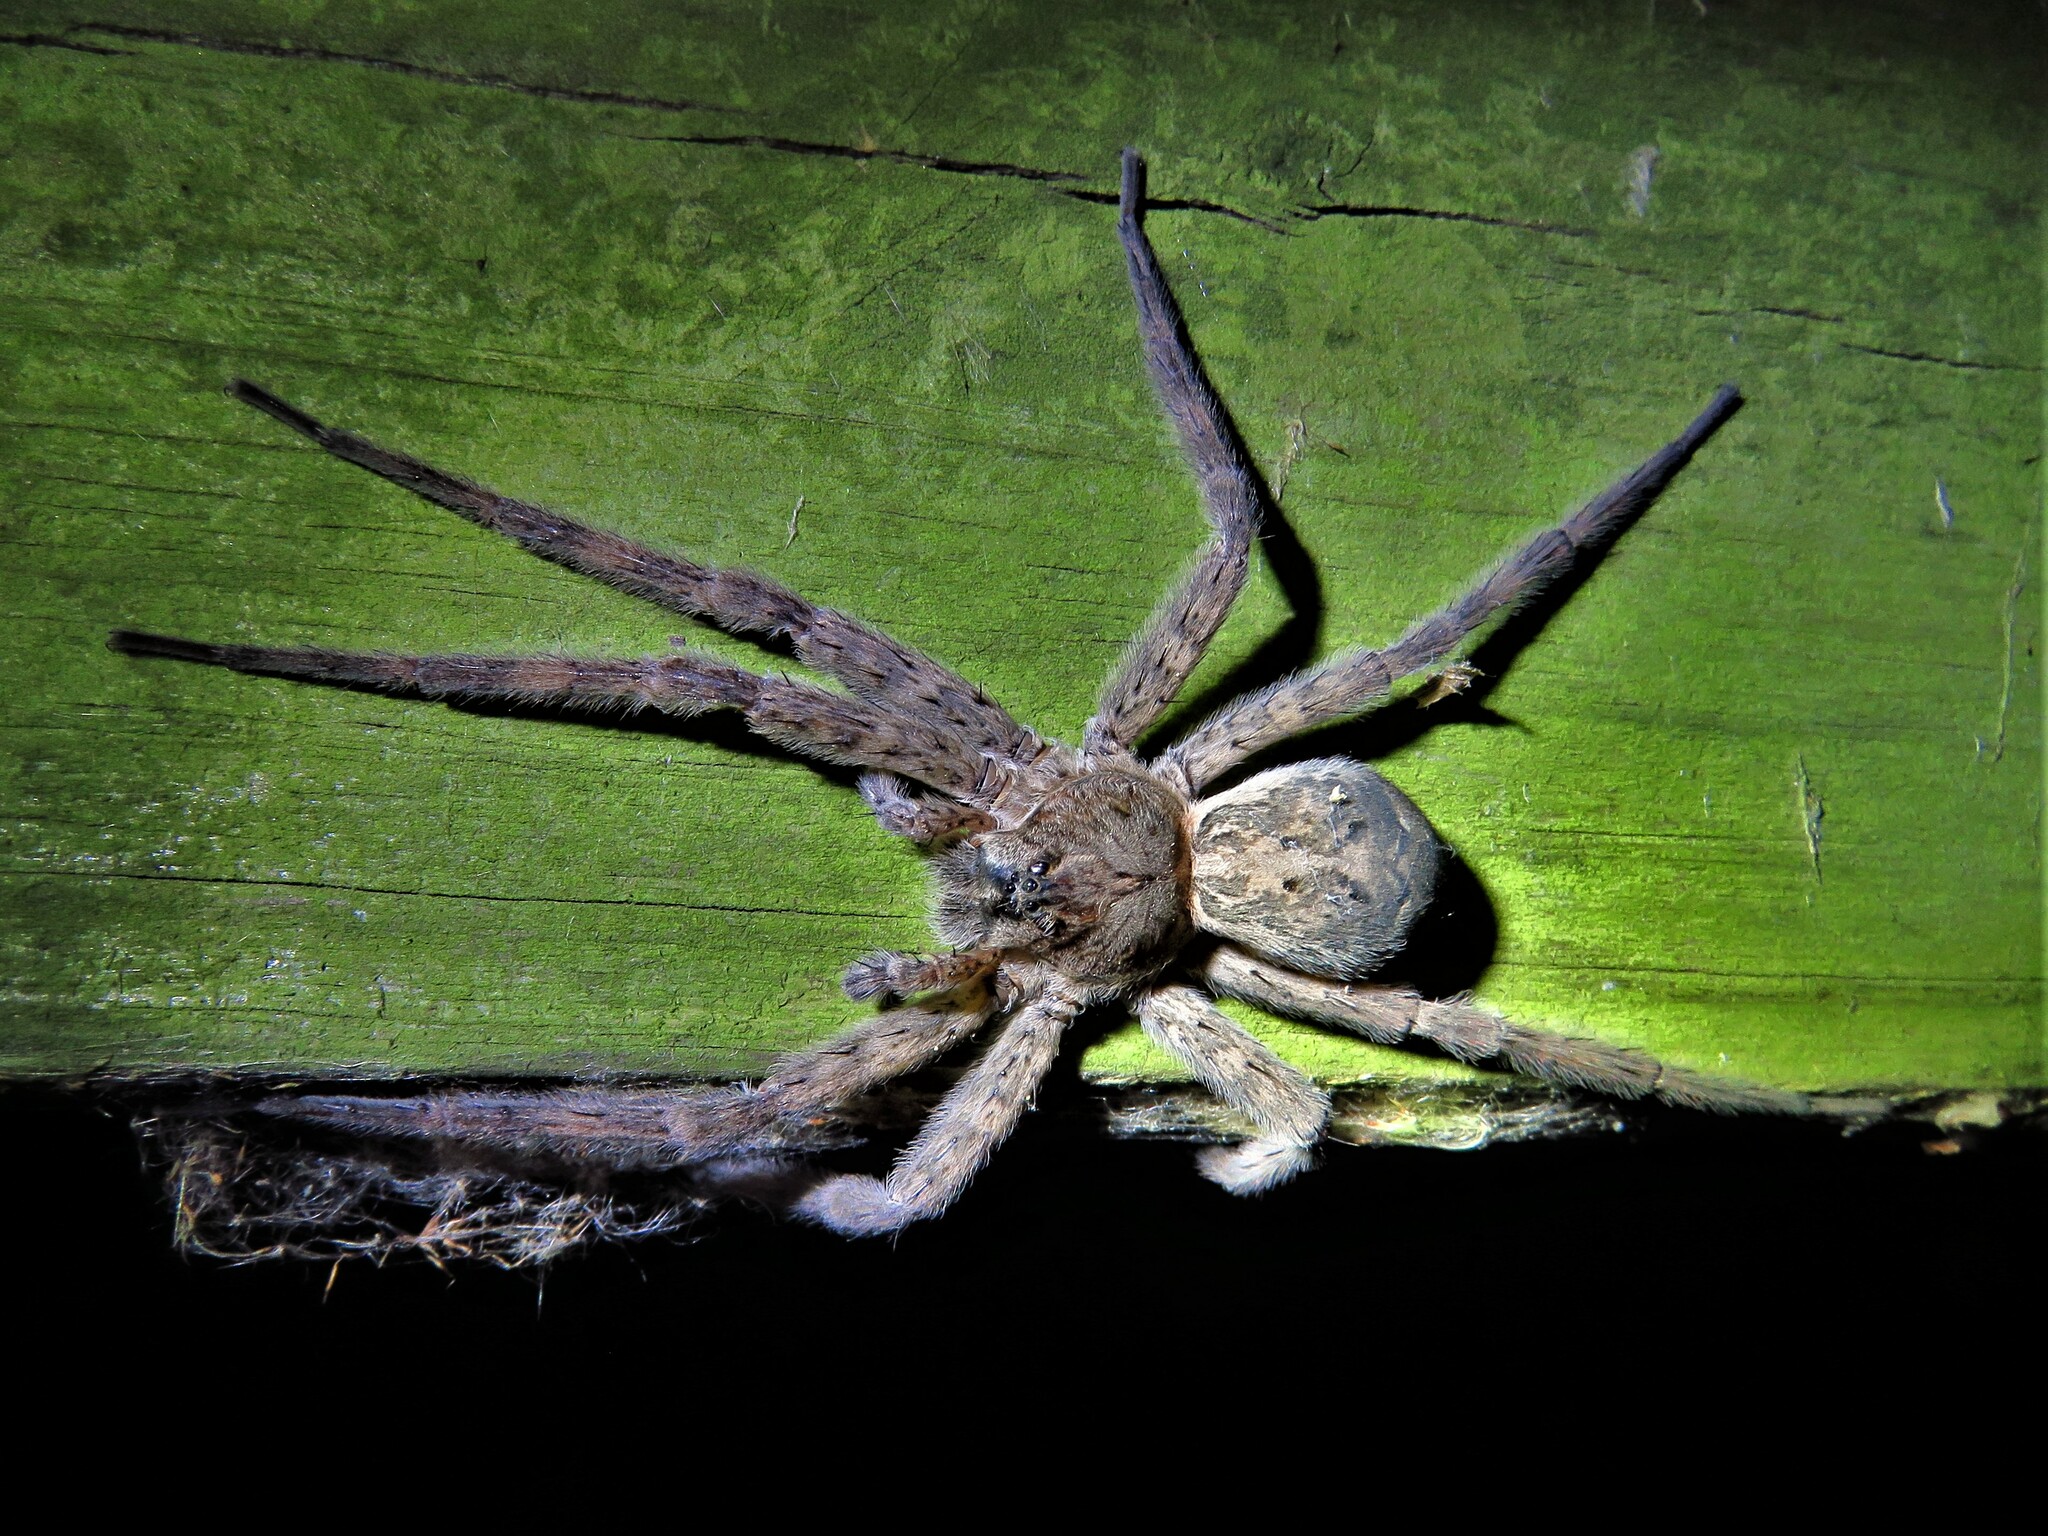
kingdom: Animalia
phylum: Arthropoda
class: Arachnida
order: Araneae
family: Pisauridae
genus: Dolomedes
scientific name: Dolomedes tenebrosus
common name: Dark fishing spider
